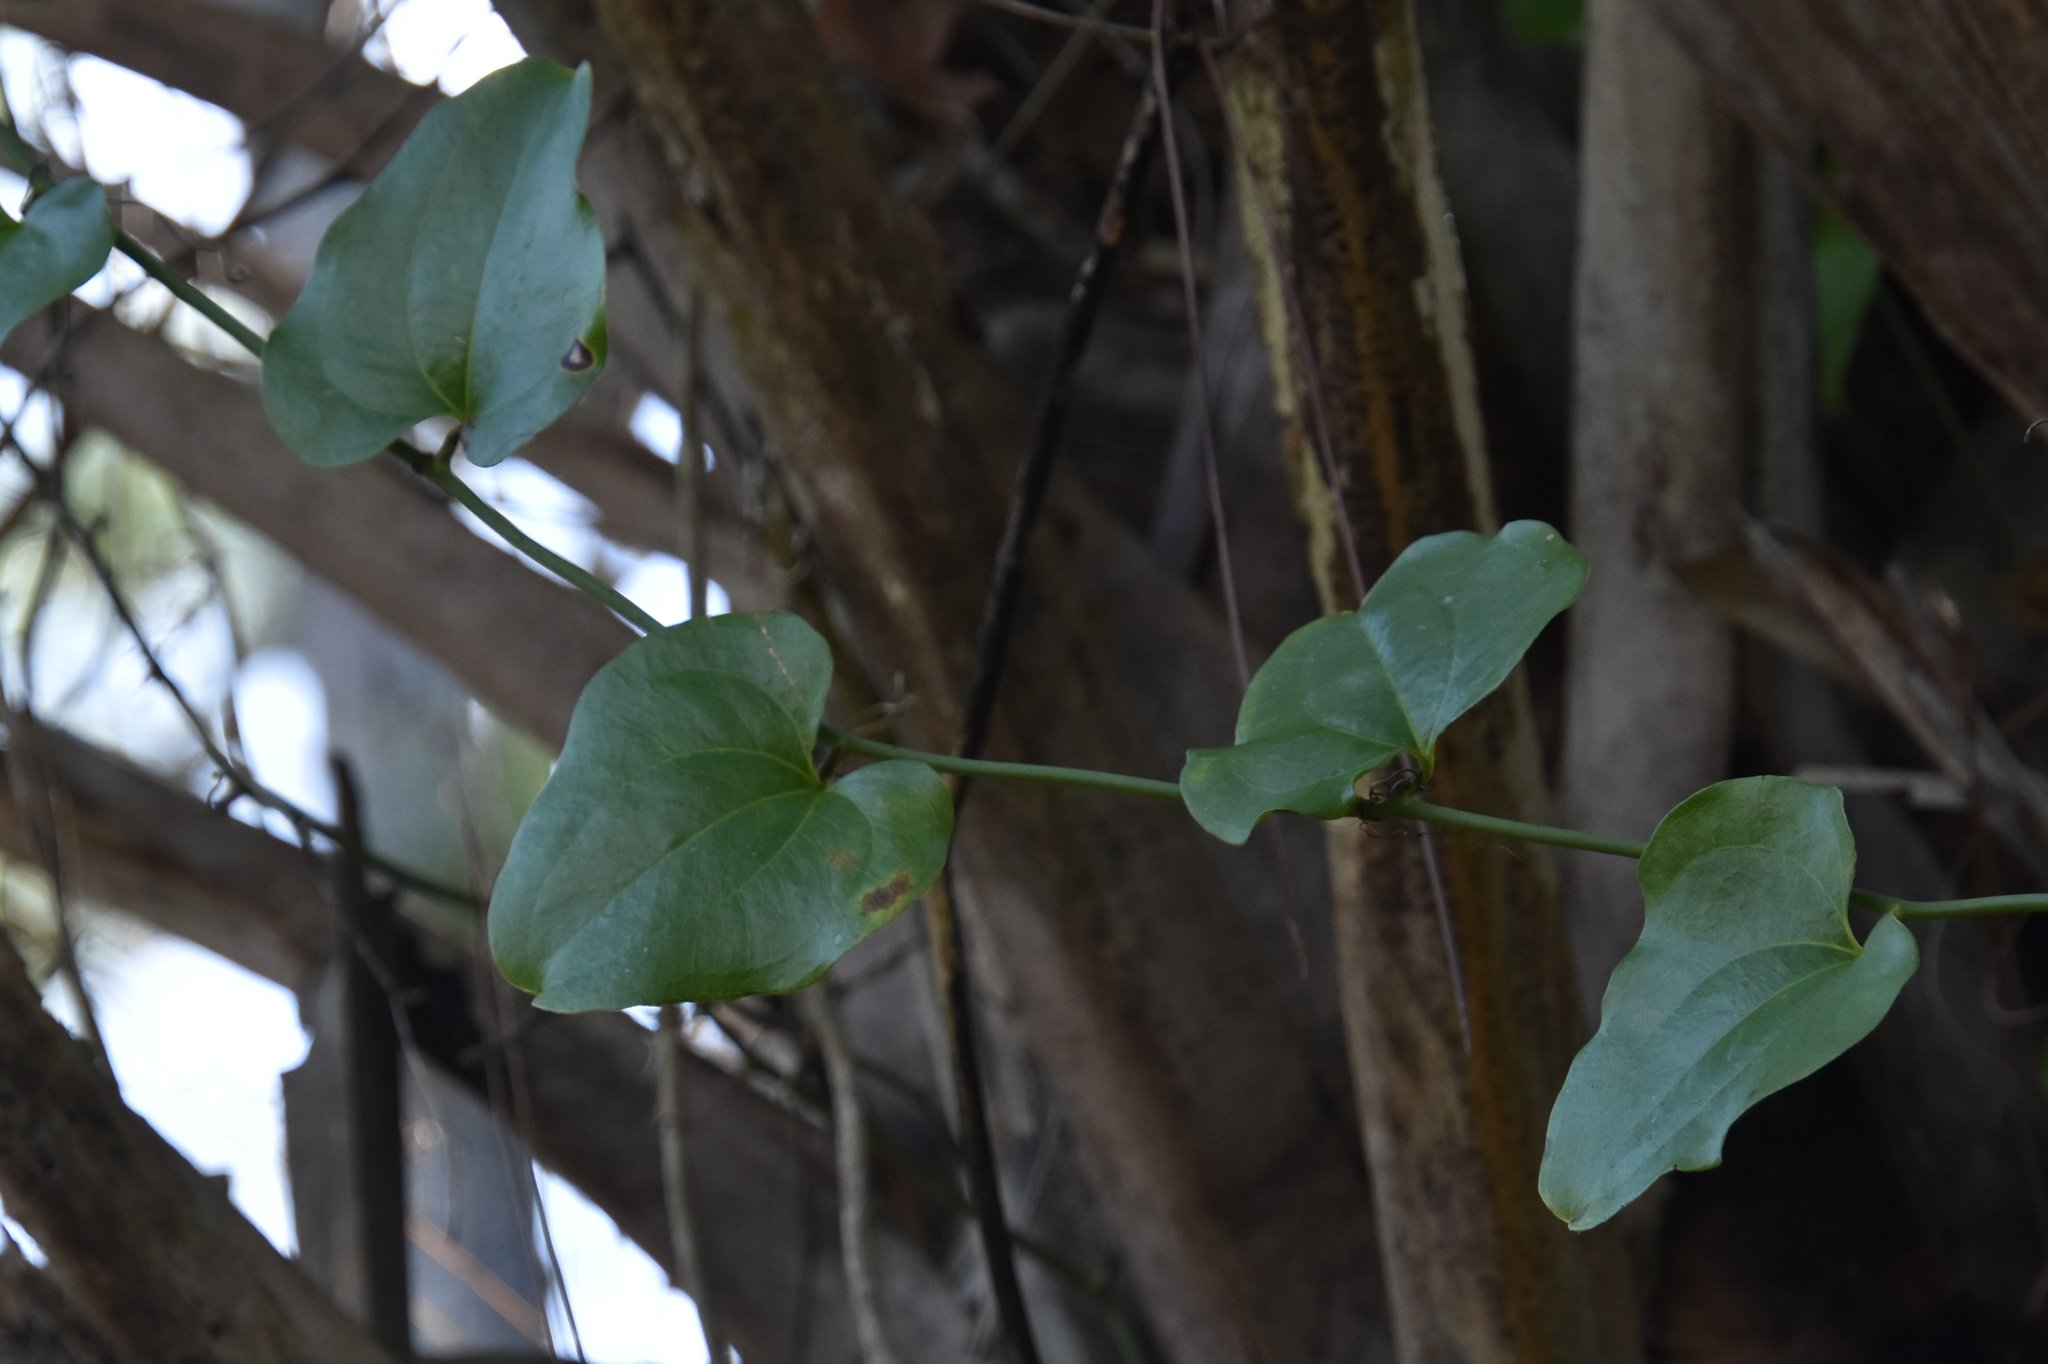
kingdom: Plantae
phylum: Tracheophyta
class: Liliopsida
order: Liliales
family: Smilacaceae
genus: Smilax
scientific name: Smilax tamnoides
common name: Hellfetter
